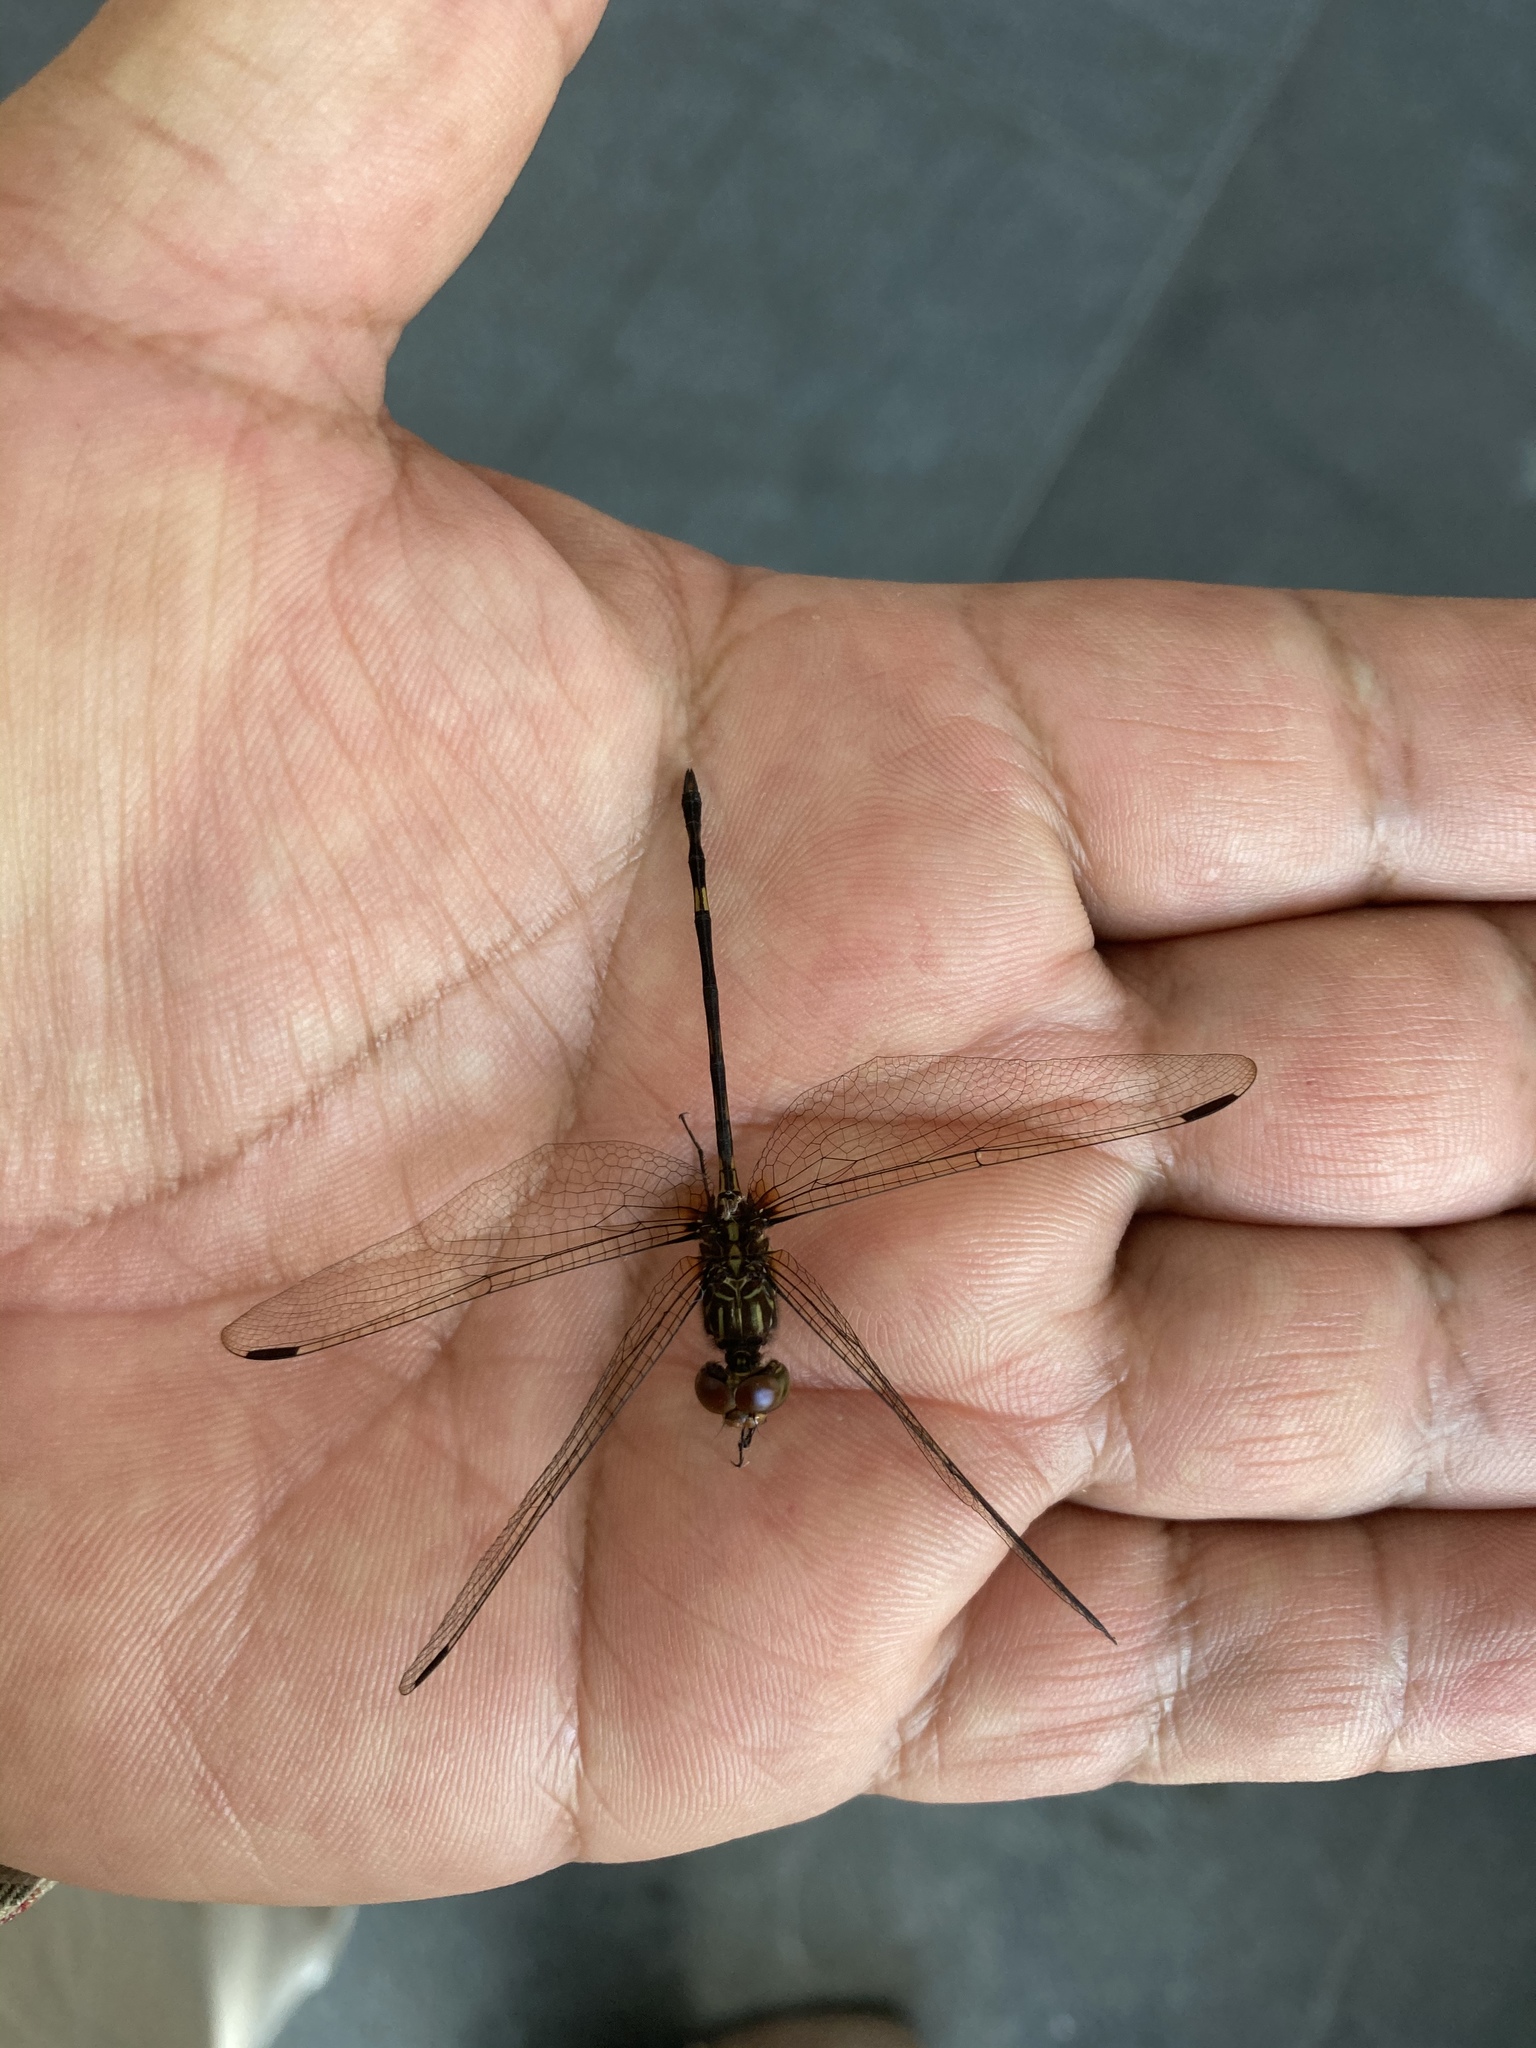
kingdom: Animalia
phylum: Arthropoda
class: Insecta
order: Odonata
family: Libellulidae
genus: Dythemis
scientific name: Dythemis sterilis
